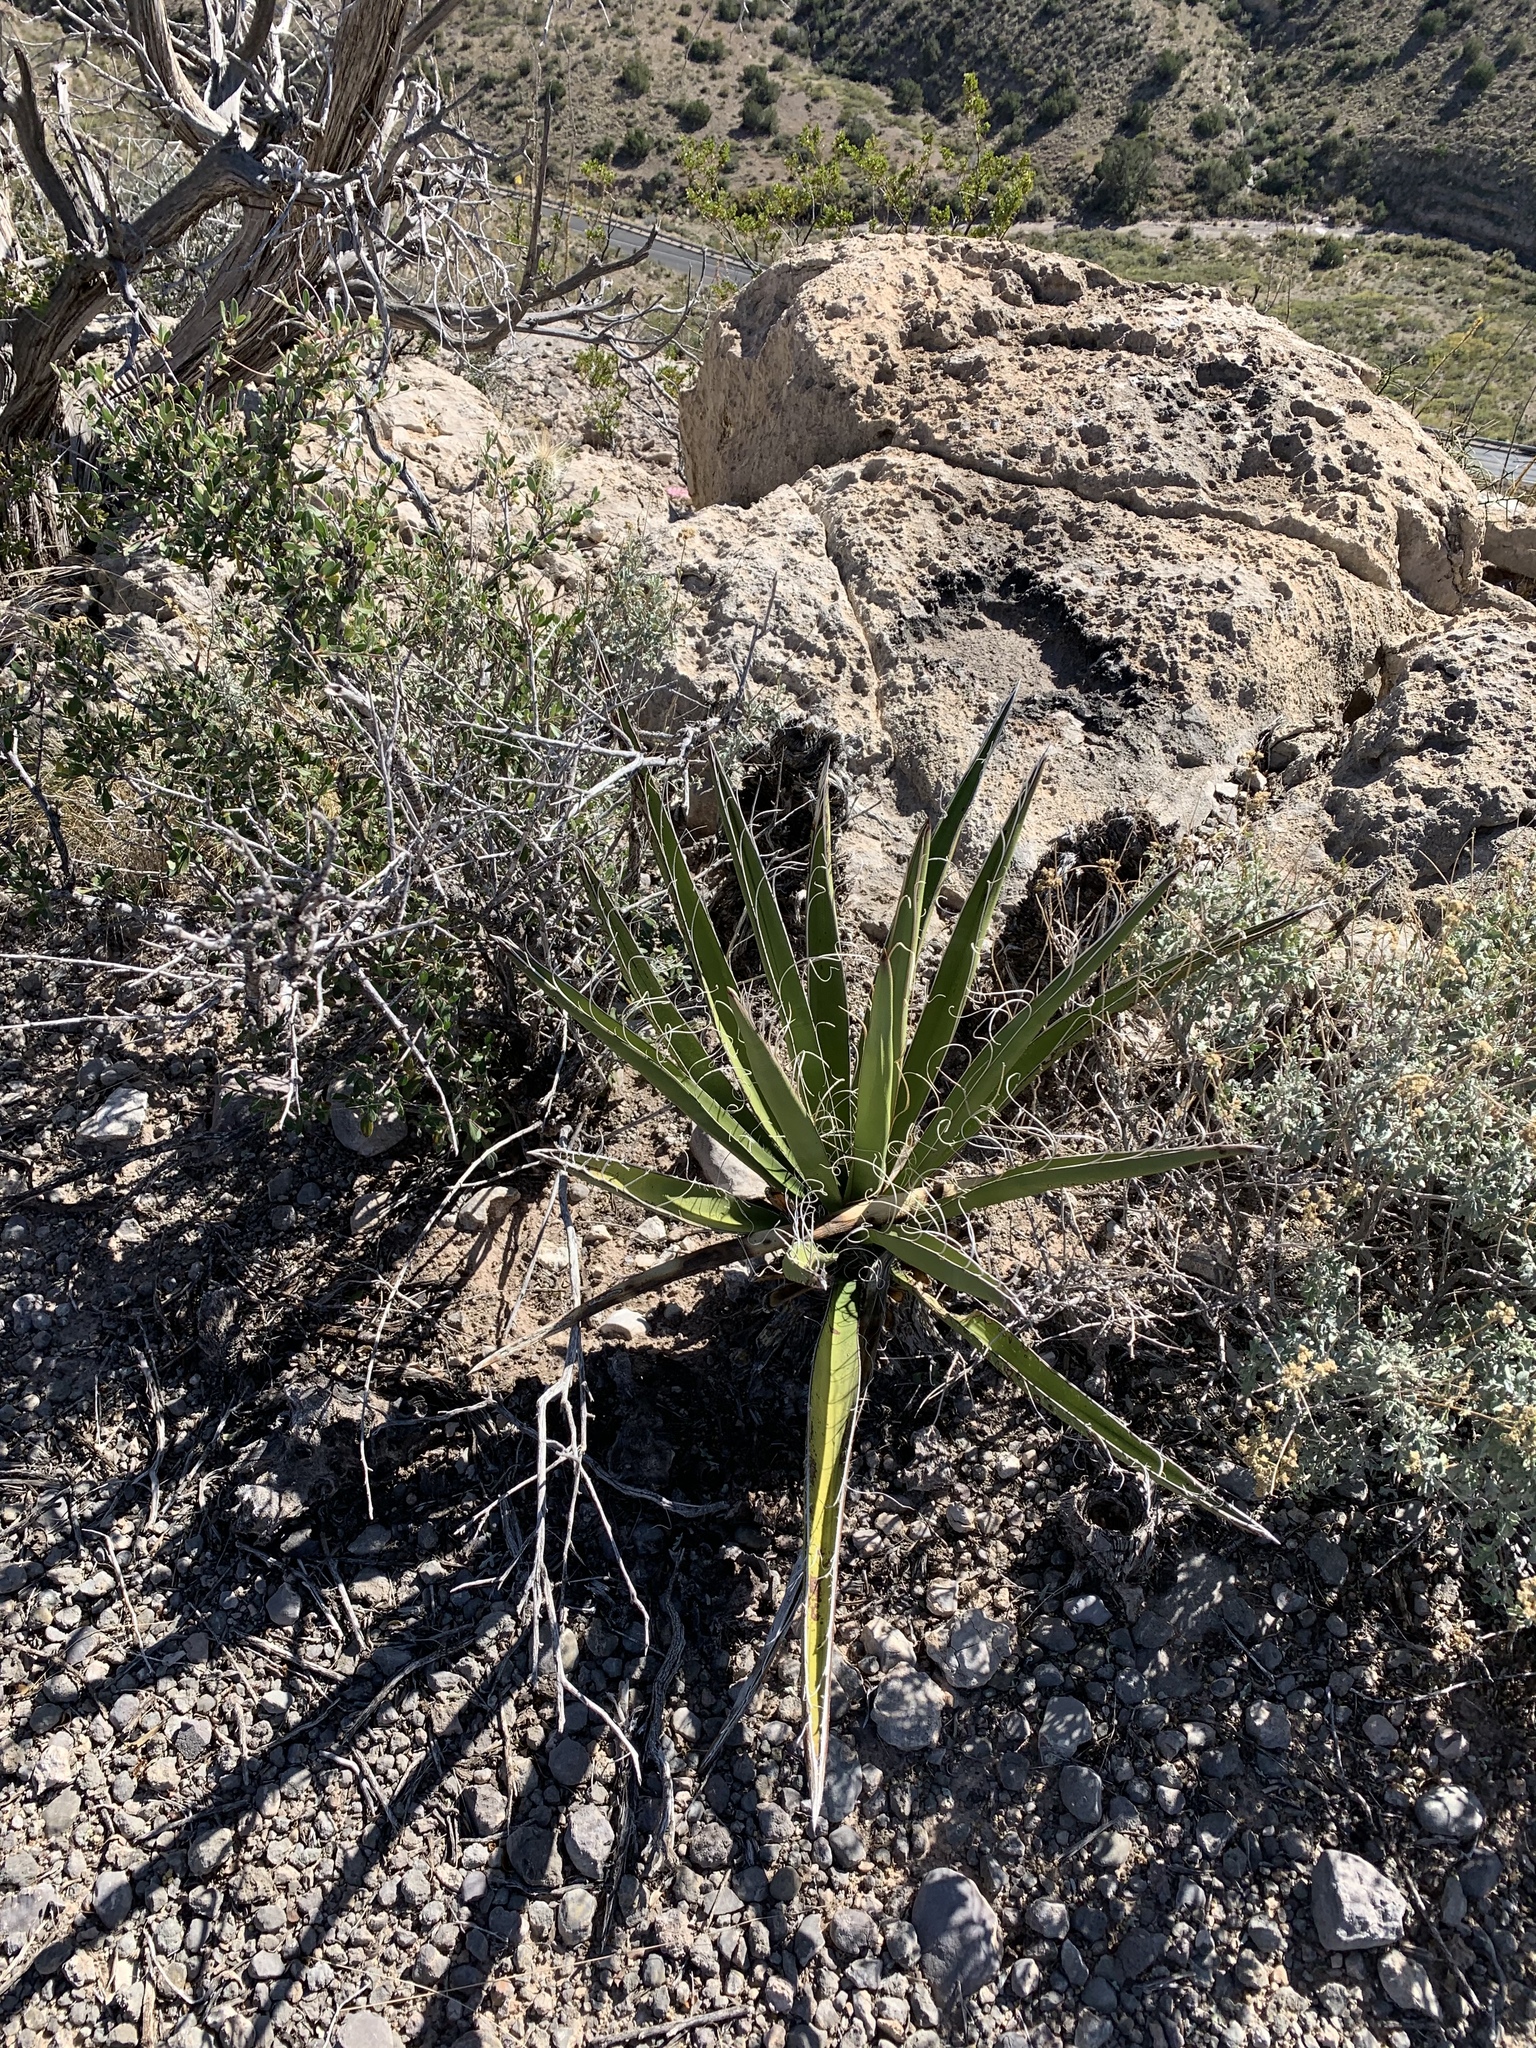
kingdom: Plantae
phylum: Tracheophyta
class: Liliopsida
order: Asparagales
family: Asparagaceae
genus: Yucca
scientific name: Yucca baccata
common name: Banana yucca
